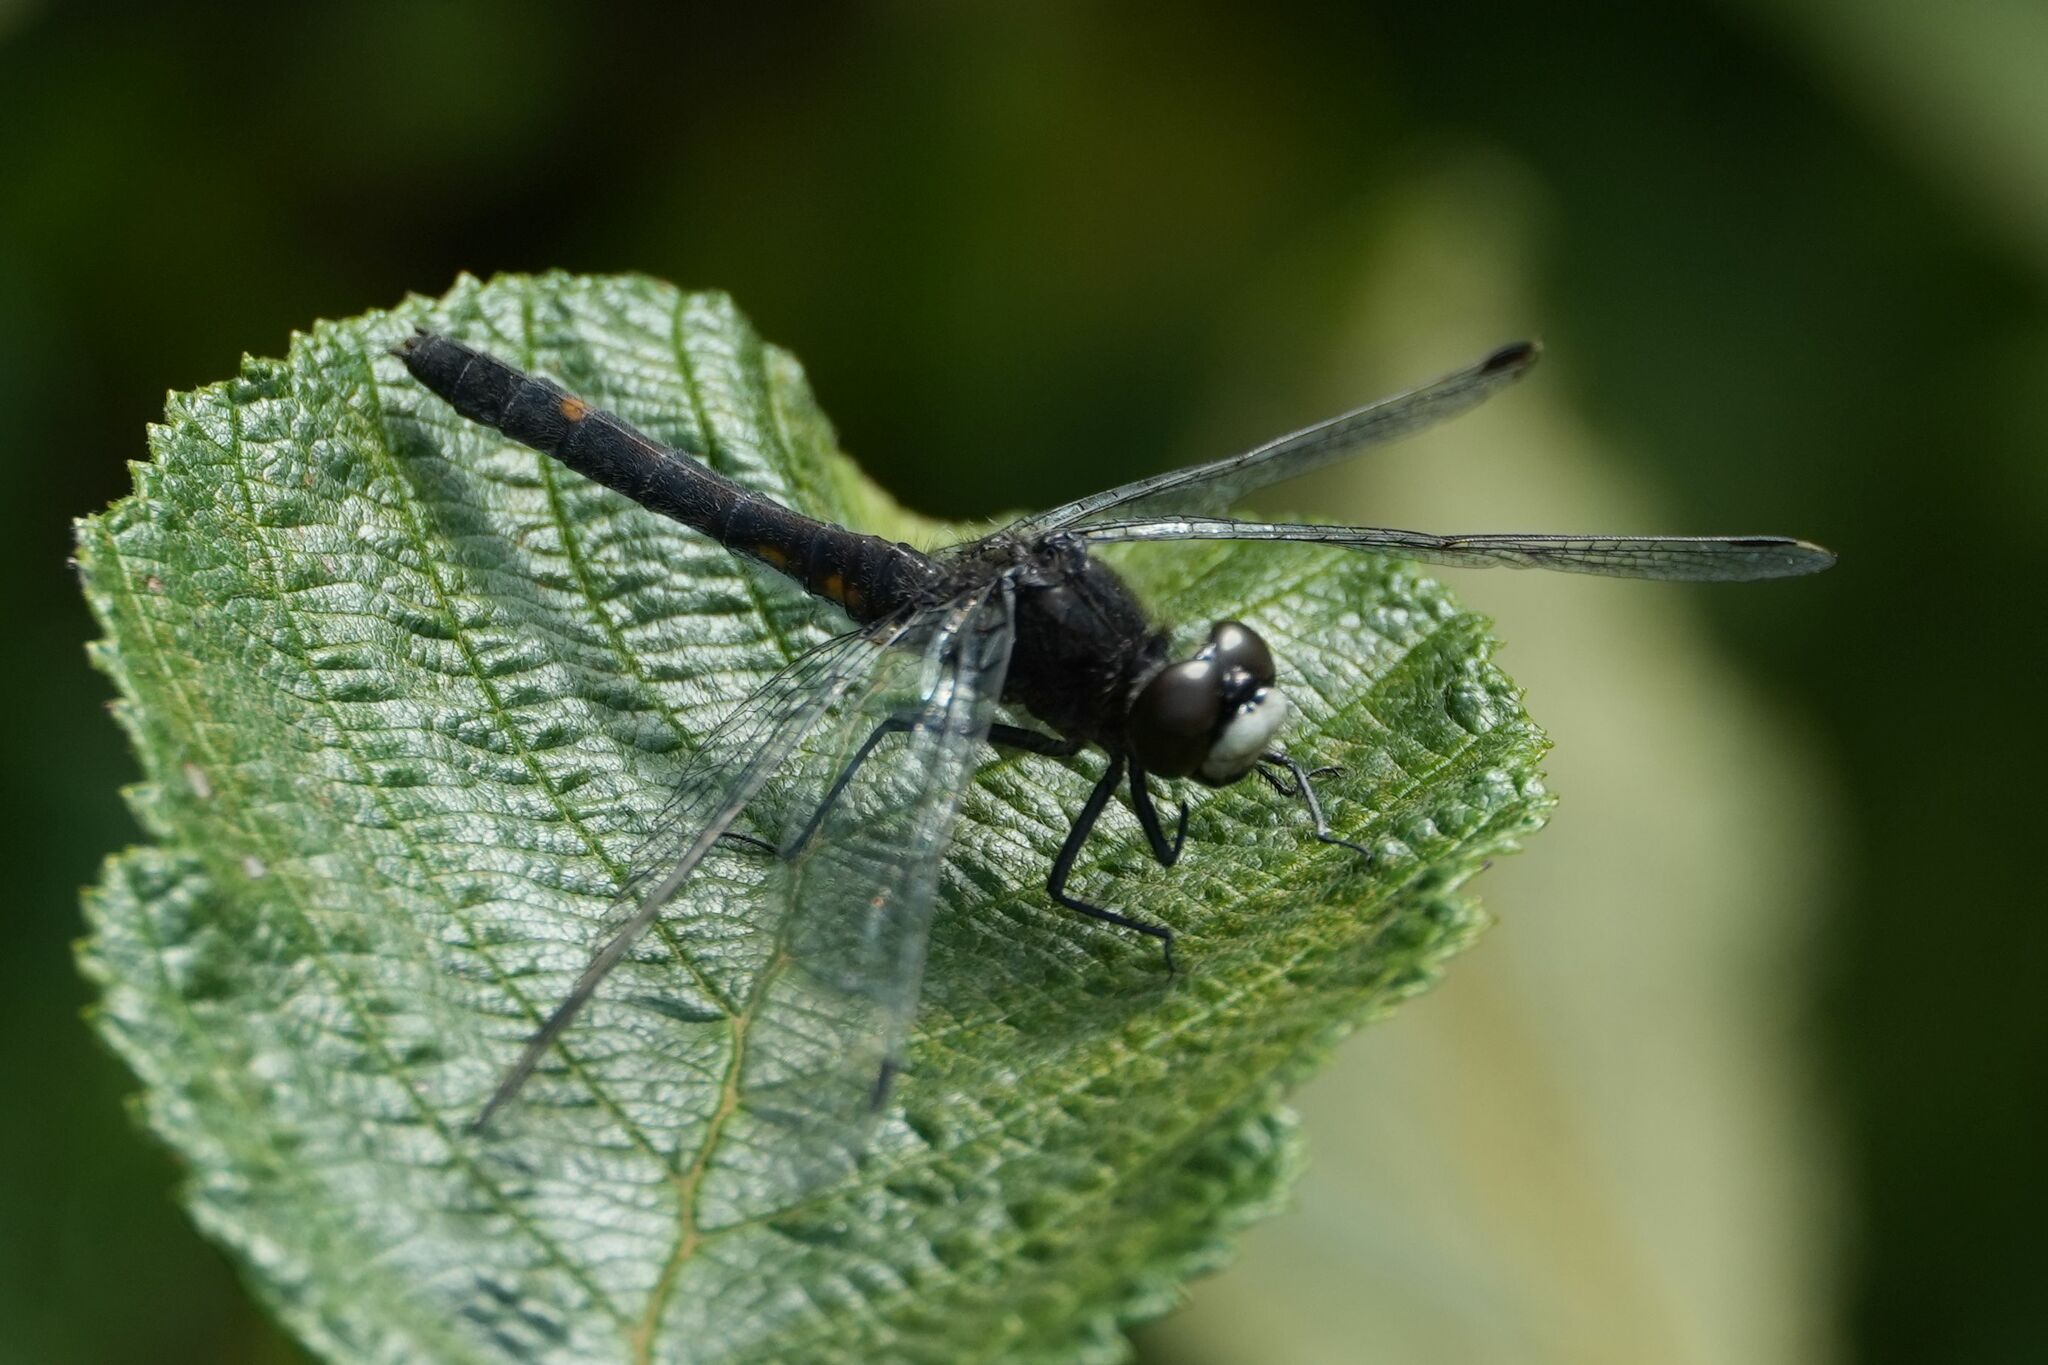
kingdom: Animalia
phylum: Arthropoda
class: Insecta
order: Odonata
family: Libellulidae
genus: Leucorrhinia
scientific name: Leucorrhinia intacta
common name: Dot-tailed whiteface
